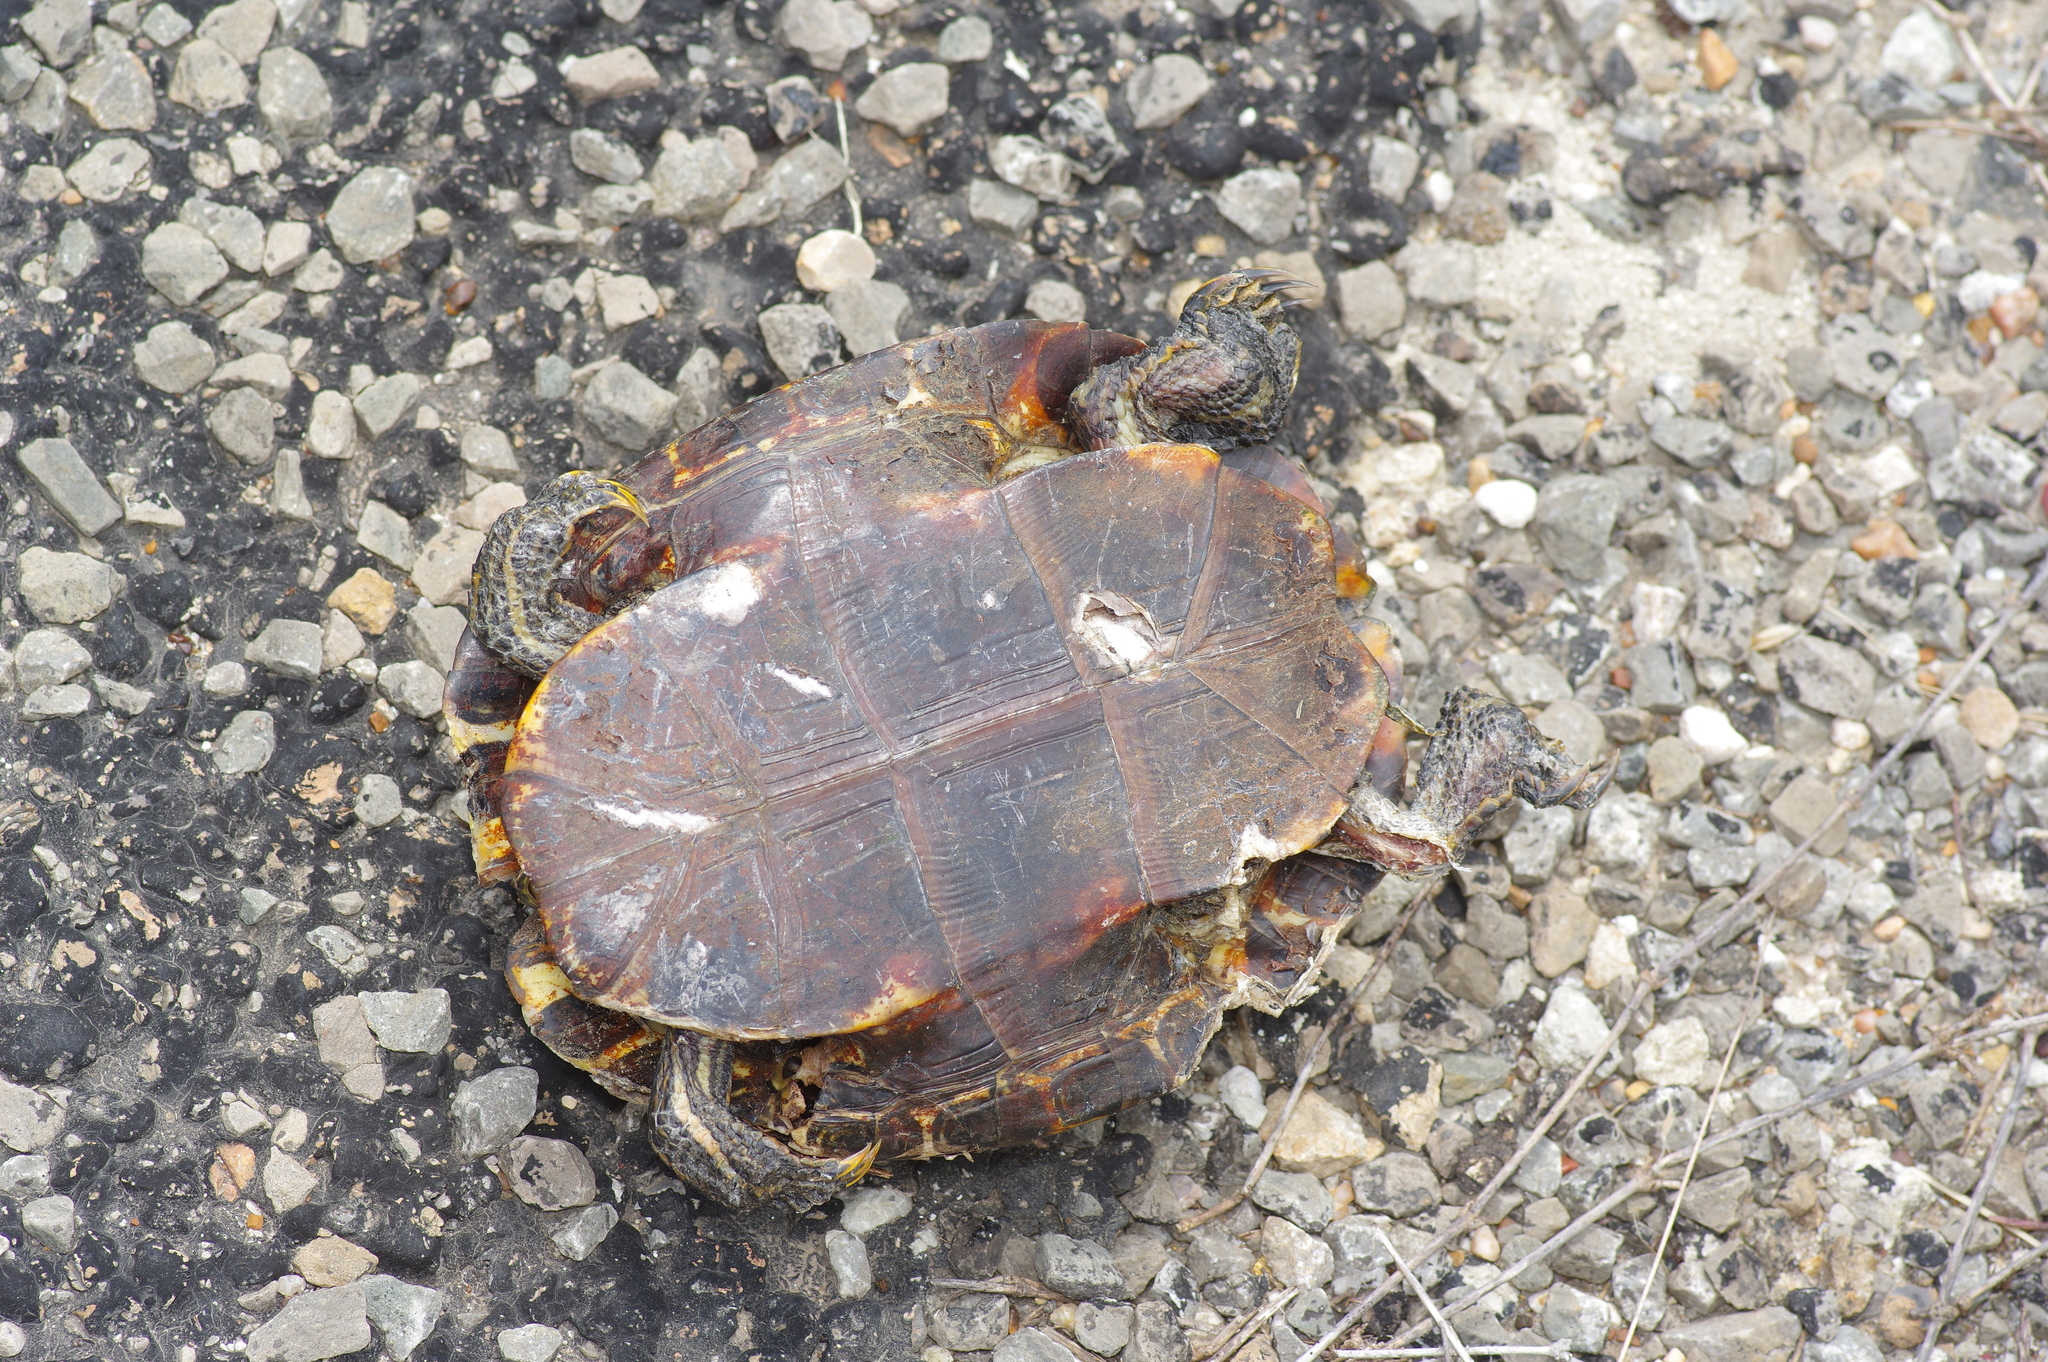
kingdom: Animalia
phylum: Chordata
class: Testudines
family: Emydidae
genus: Trachemys
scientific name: Trachemys scripta
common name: Slider
